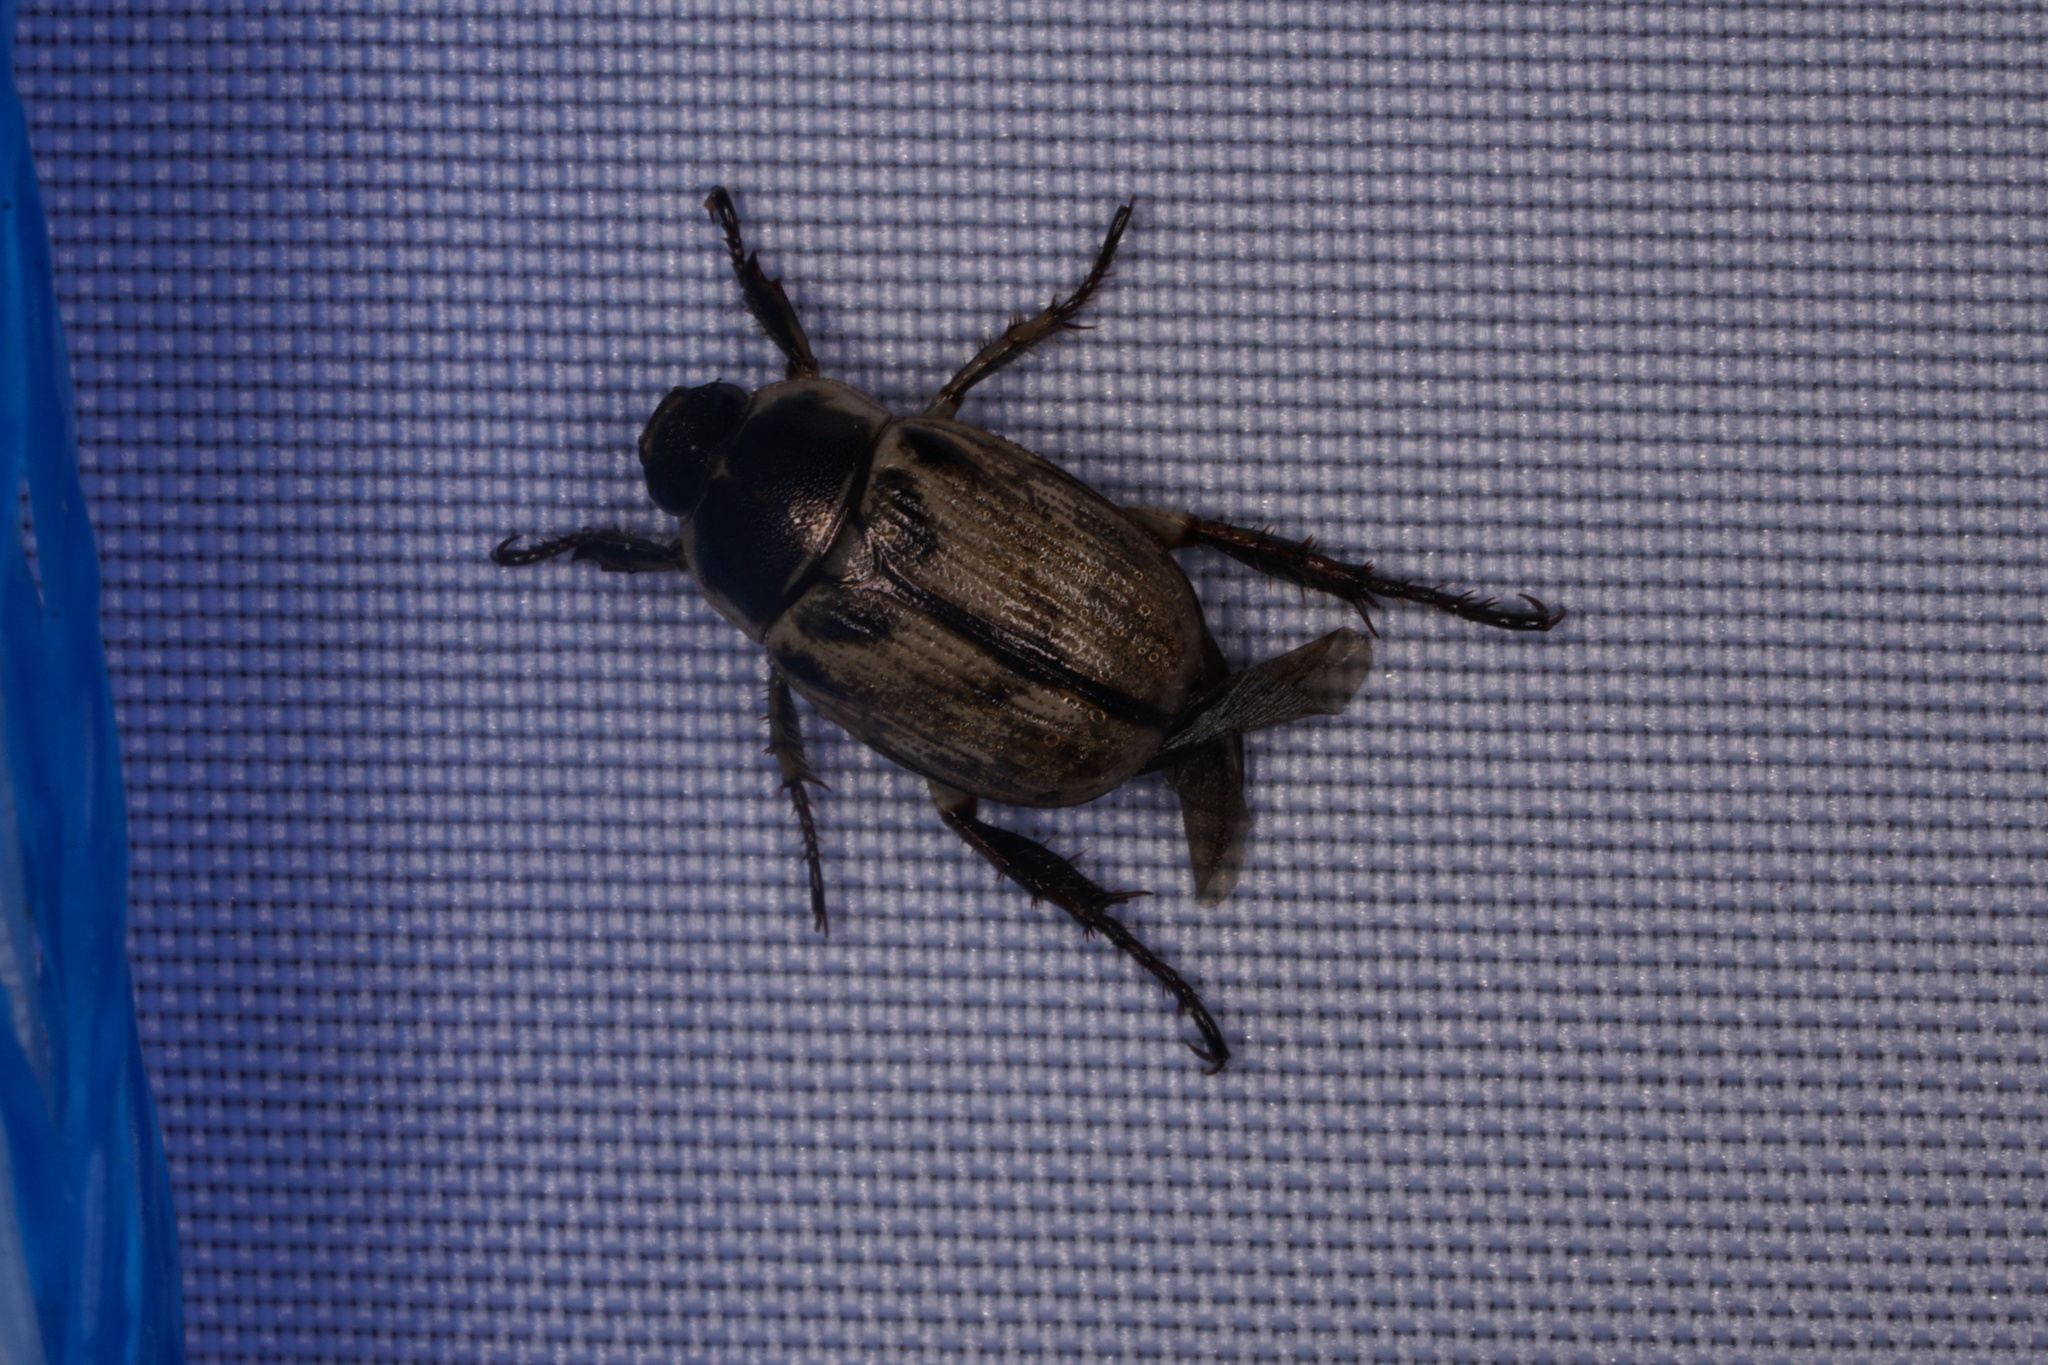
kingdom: Animalia
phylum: Arthropoda
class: Insecta
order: Coleoptera
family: Scarabaeidae
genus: Exomala
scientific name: Exomala orientalis
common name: Oriental beetle
